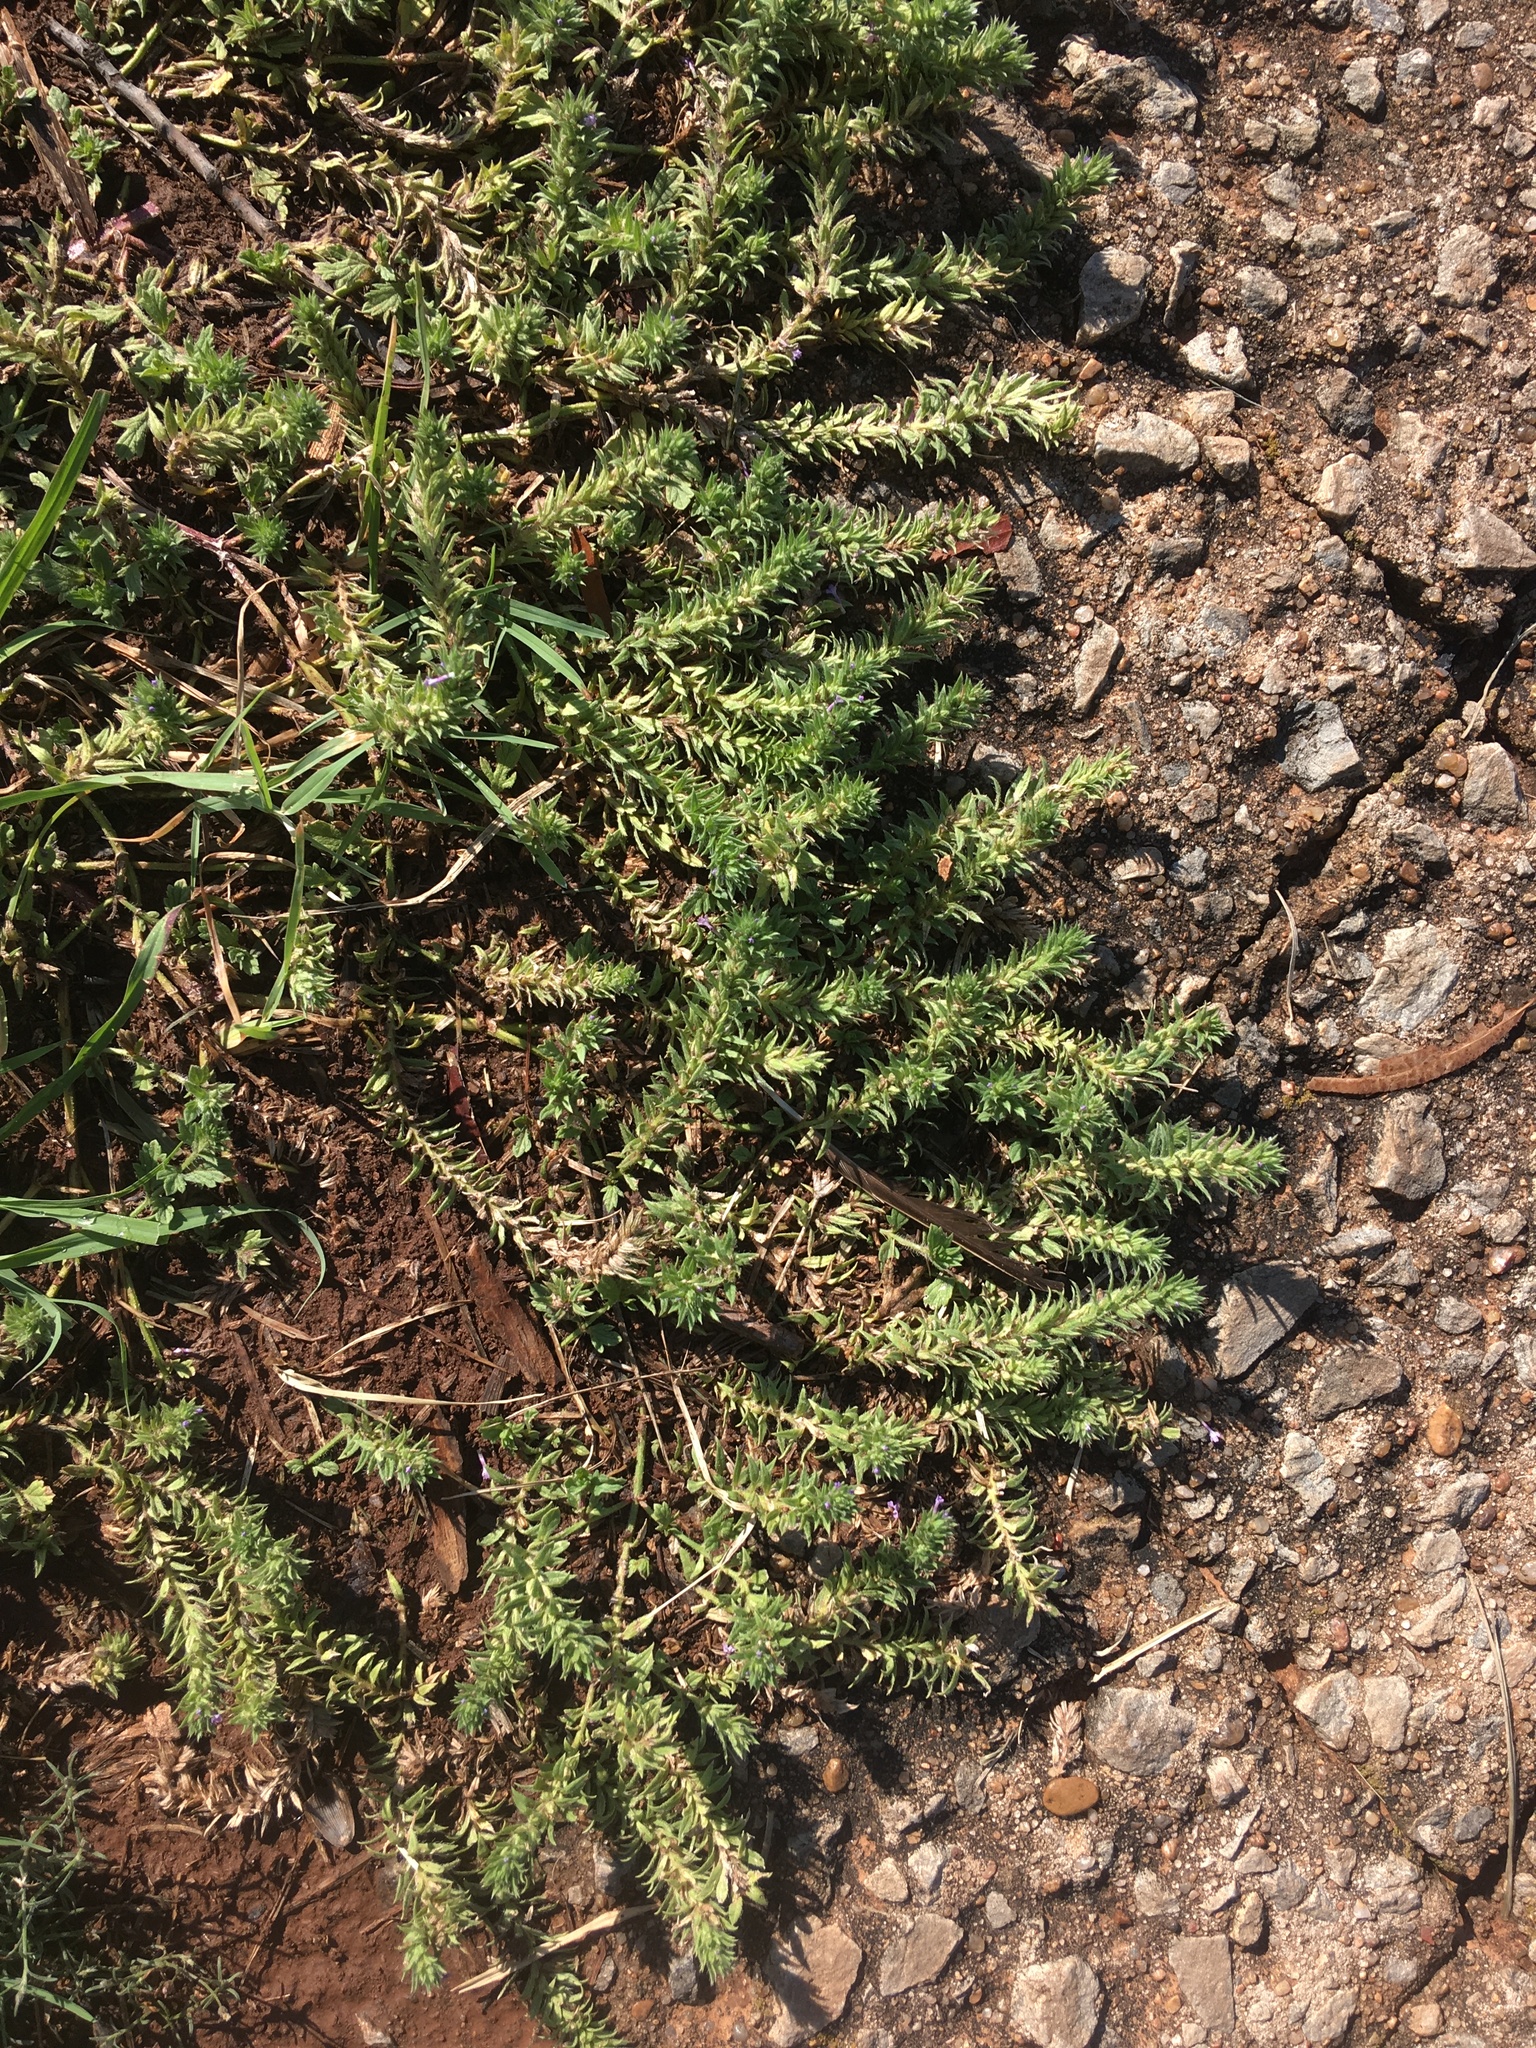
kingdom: Plantae
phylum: Tracheophyta
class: Magnoliopsida
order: Lamiales
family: Verbenaceae
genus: Verbena
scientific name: Verbena bracteata
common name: Bracted vervain
